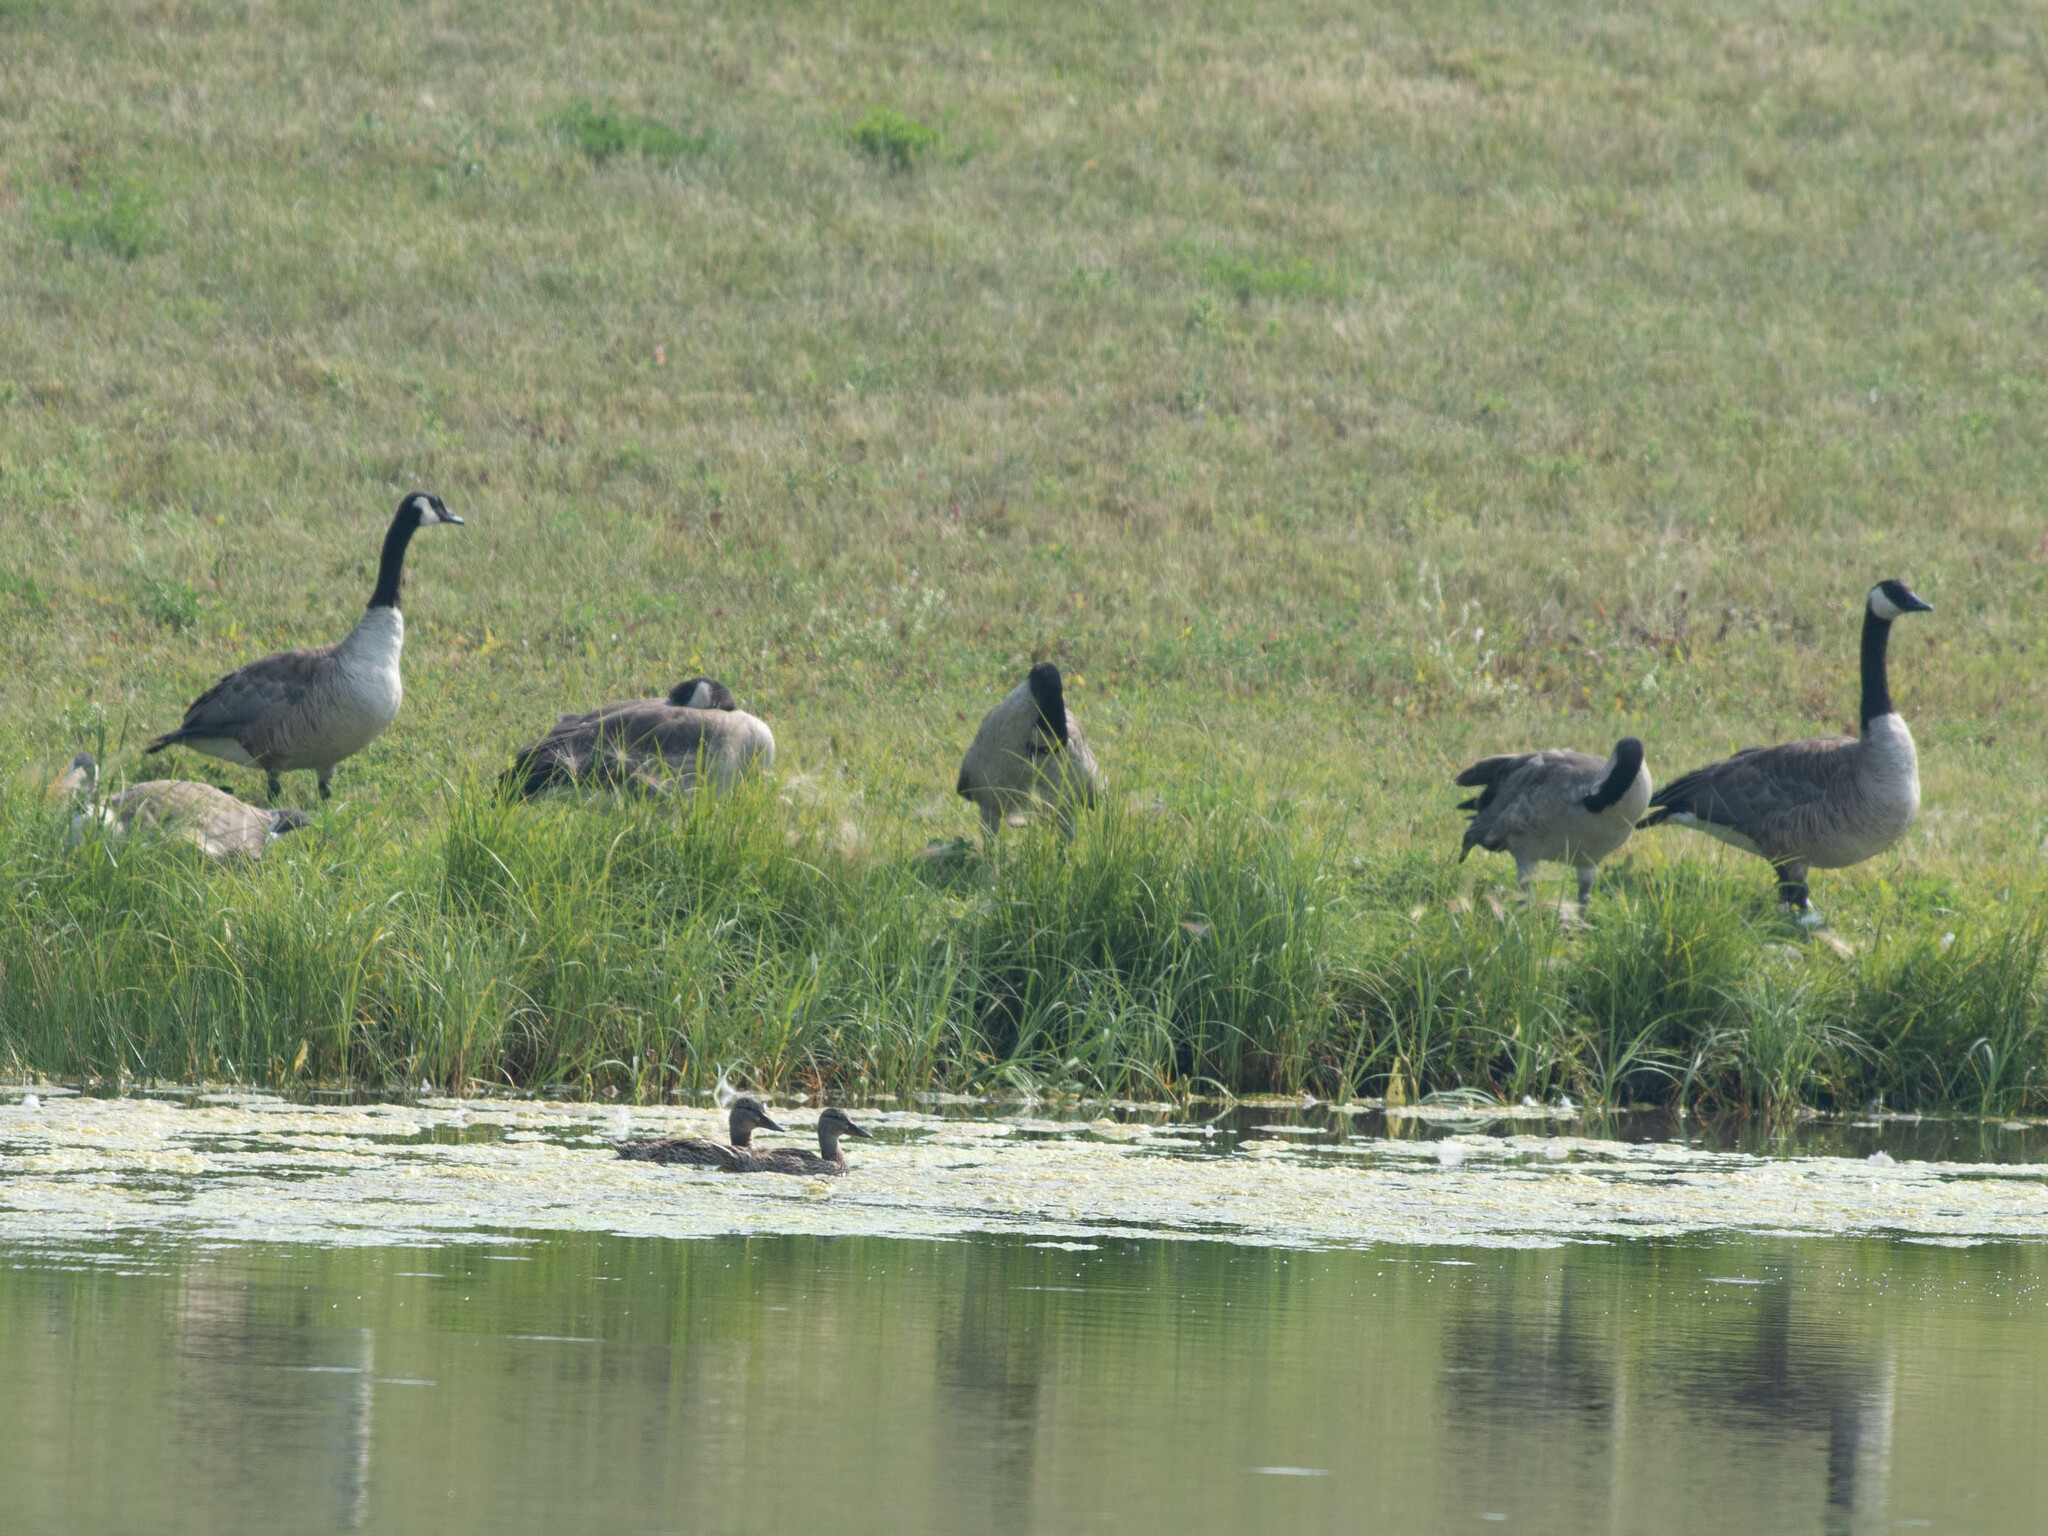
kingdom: Animalia
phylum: Chordata
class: Aves
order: Anseriformes
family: Anatidae
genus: Branta
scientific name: Branta canadensis
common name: Canada goose
